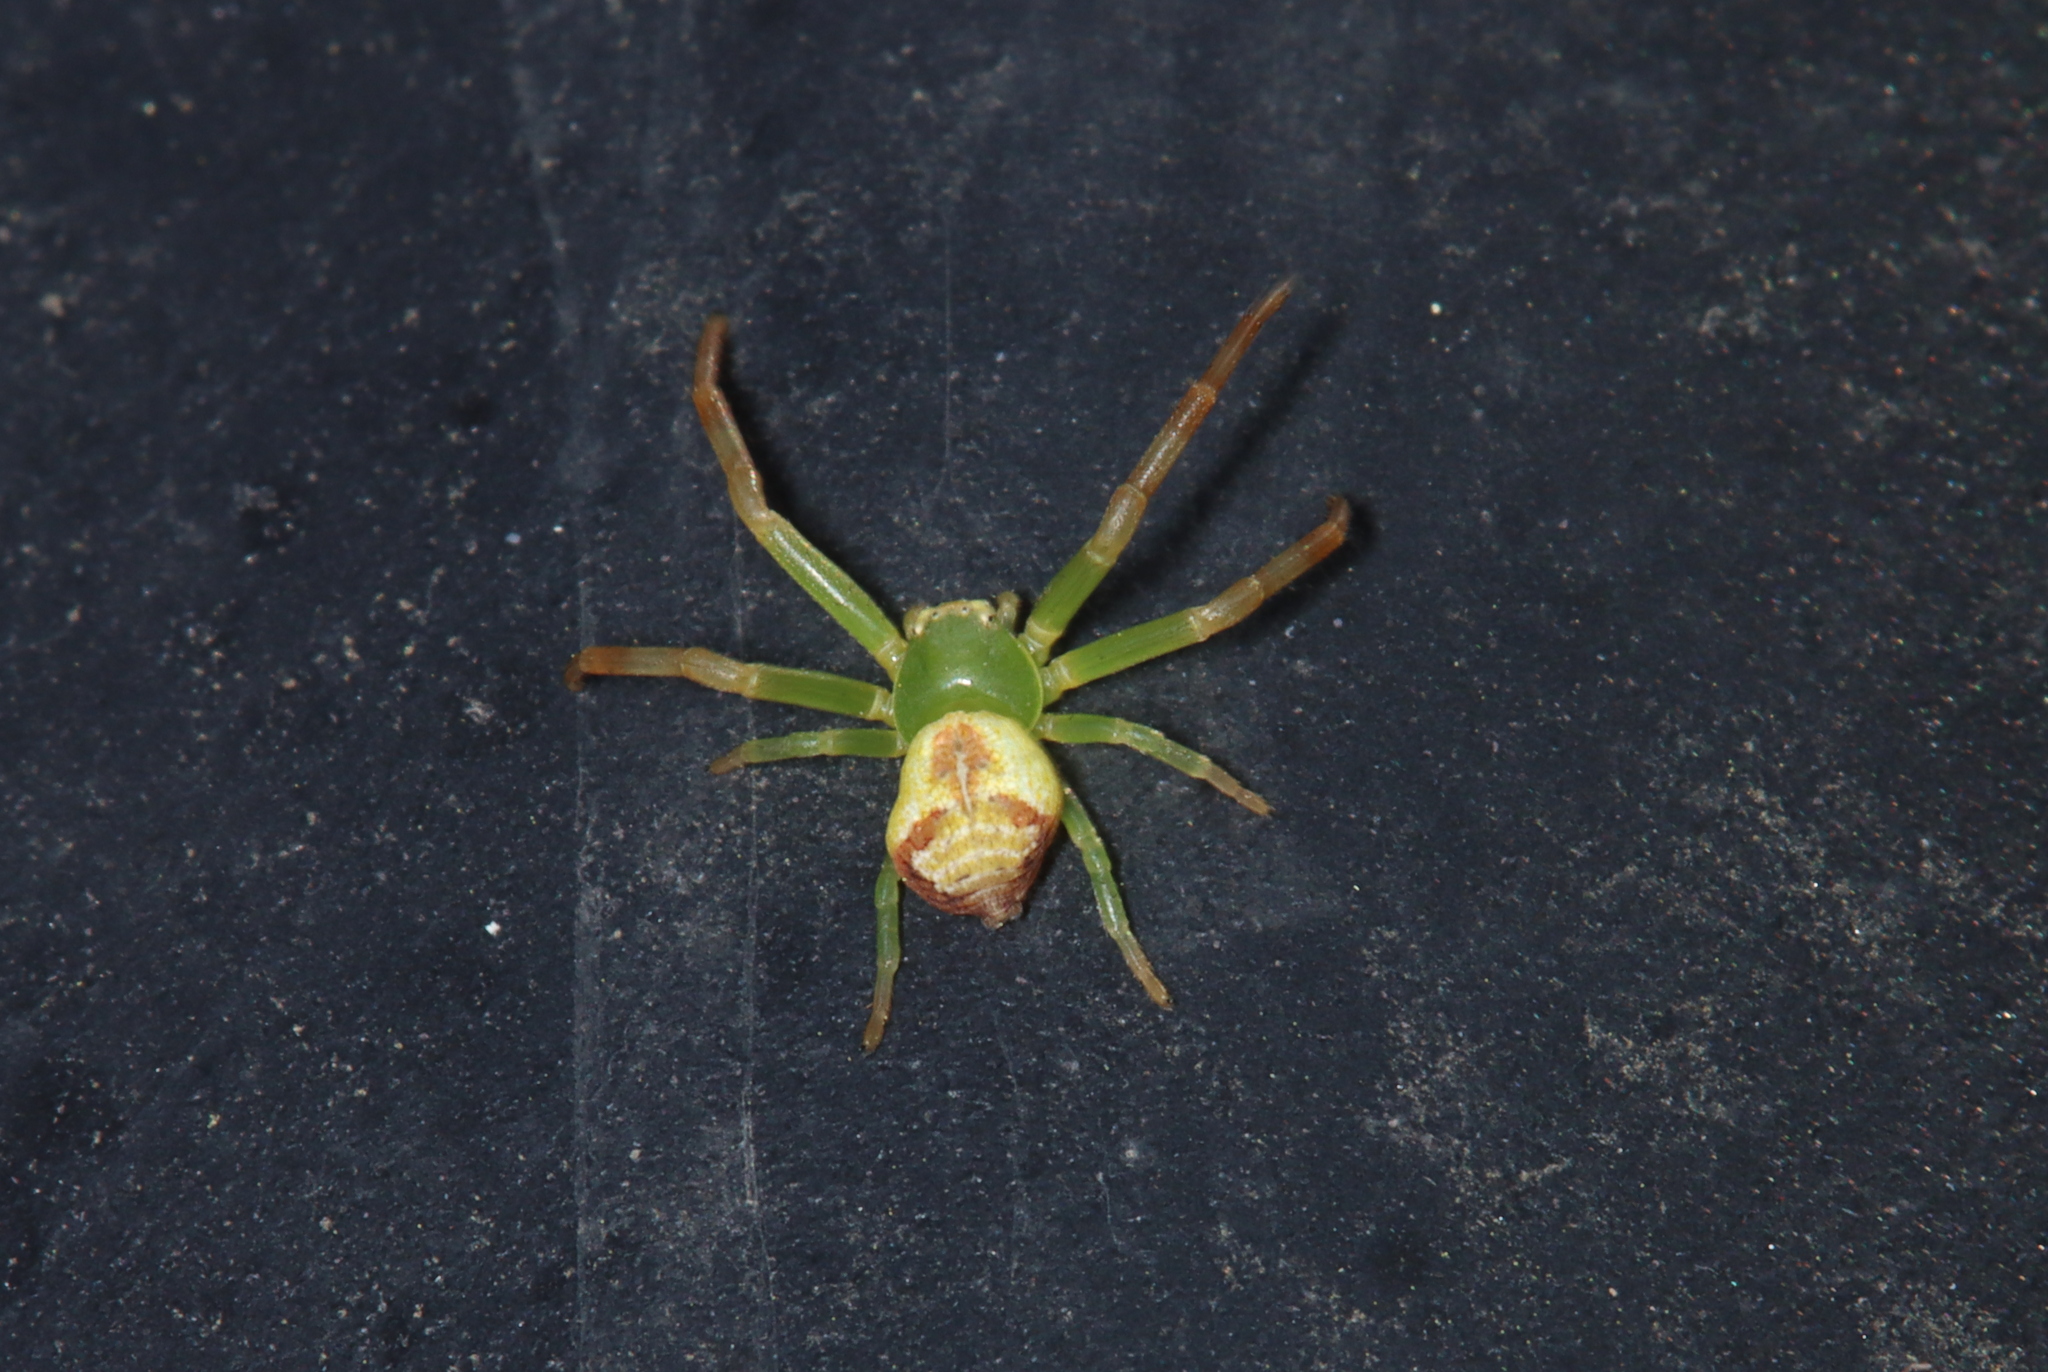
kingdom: Animalia
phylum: Arthropoda
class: Arachnida
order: Araneae
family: Thomisidae
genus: Ebrechtella
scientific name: Ebrechtella tricuspidata
